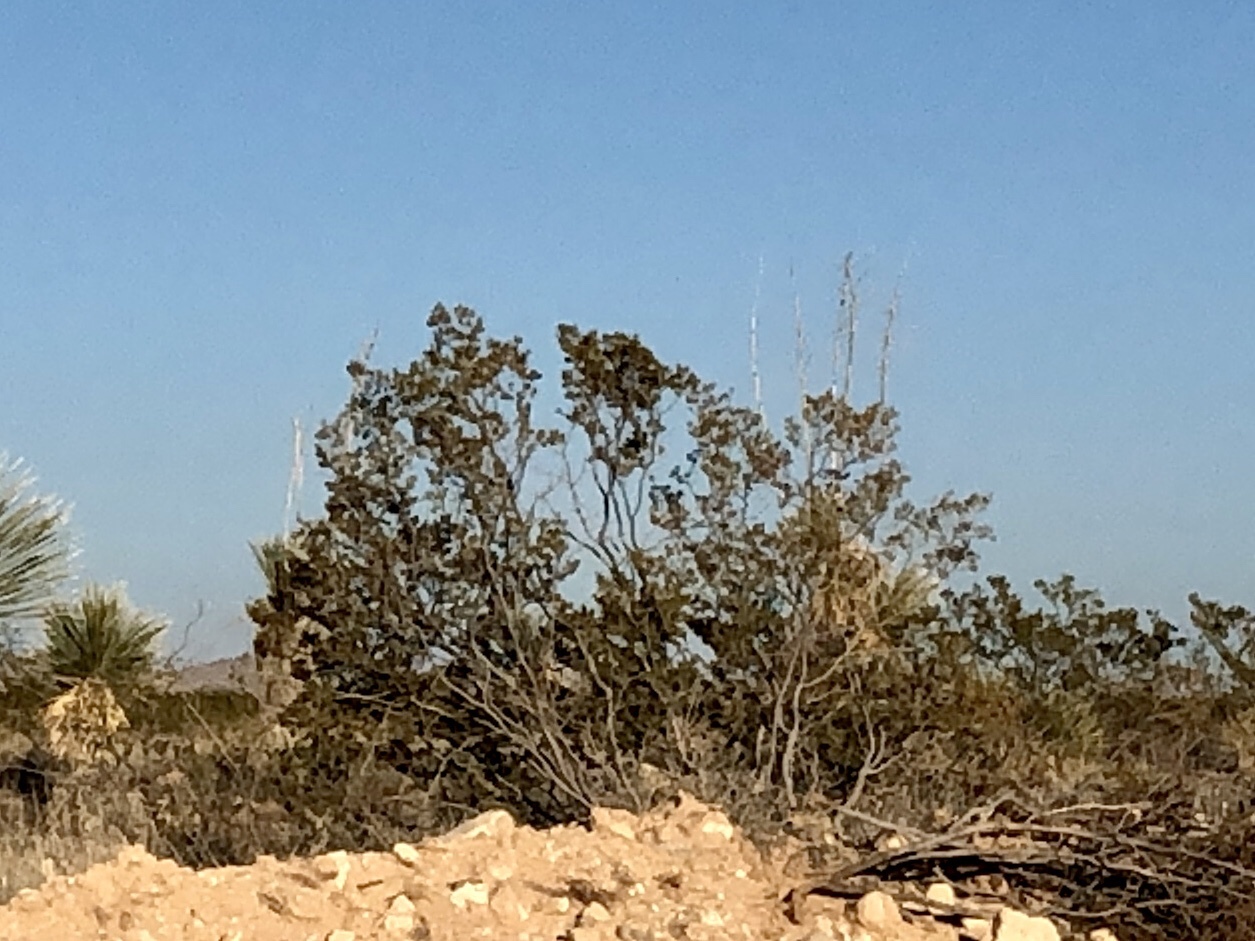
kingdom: Plantae
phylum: Tracheophyta
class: Magnoliopsida
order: Zygophyllales
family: Zygophyllaceae
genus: Larrea
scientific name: Larrea tridentata
